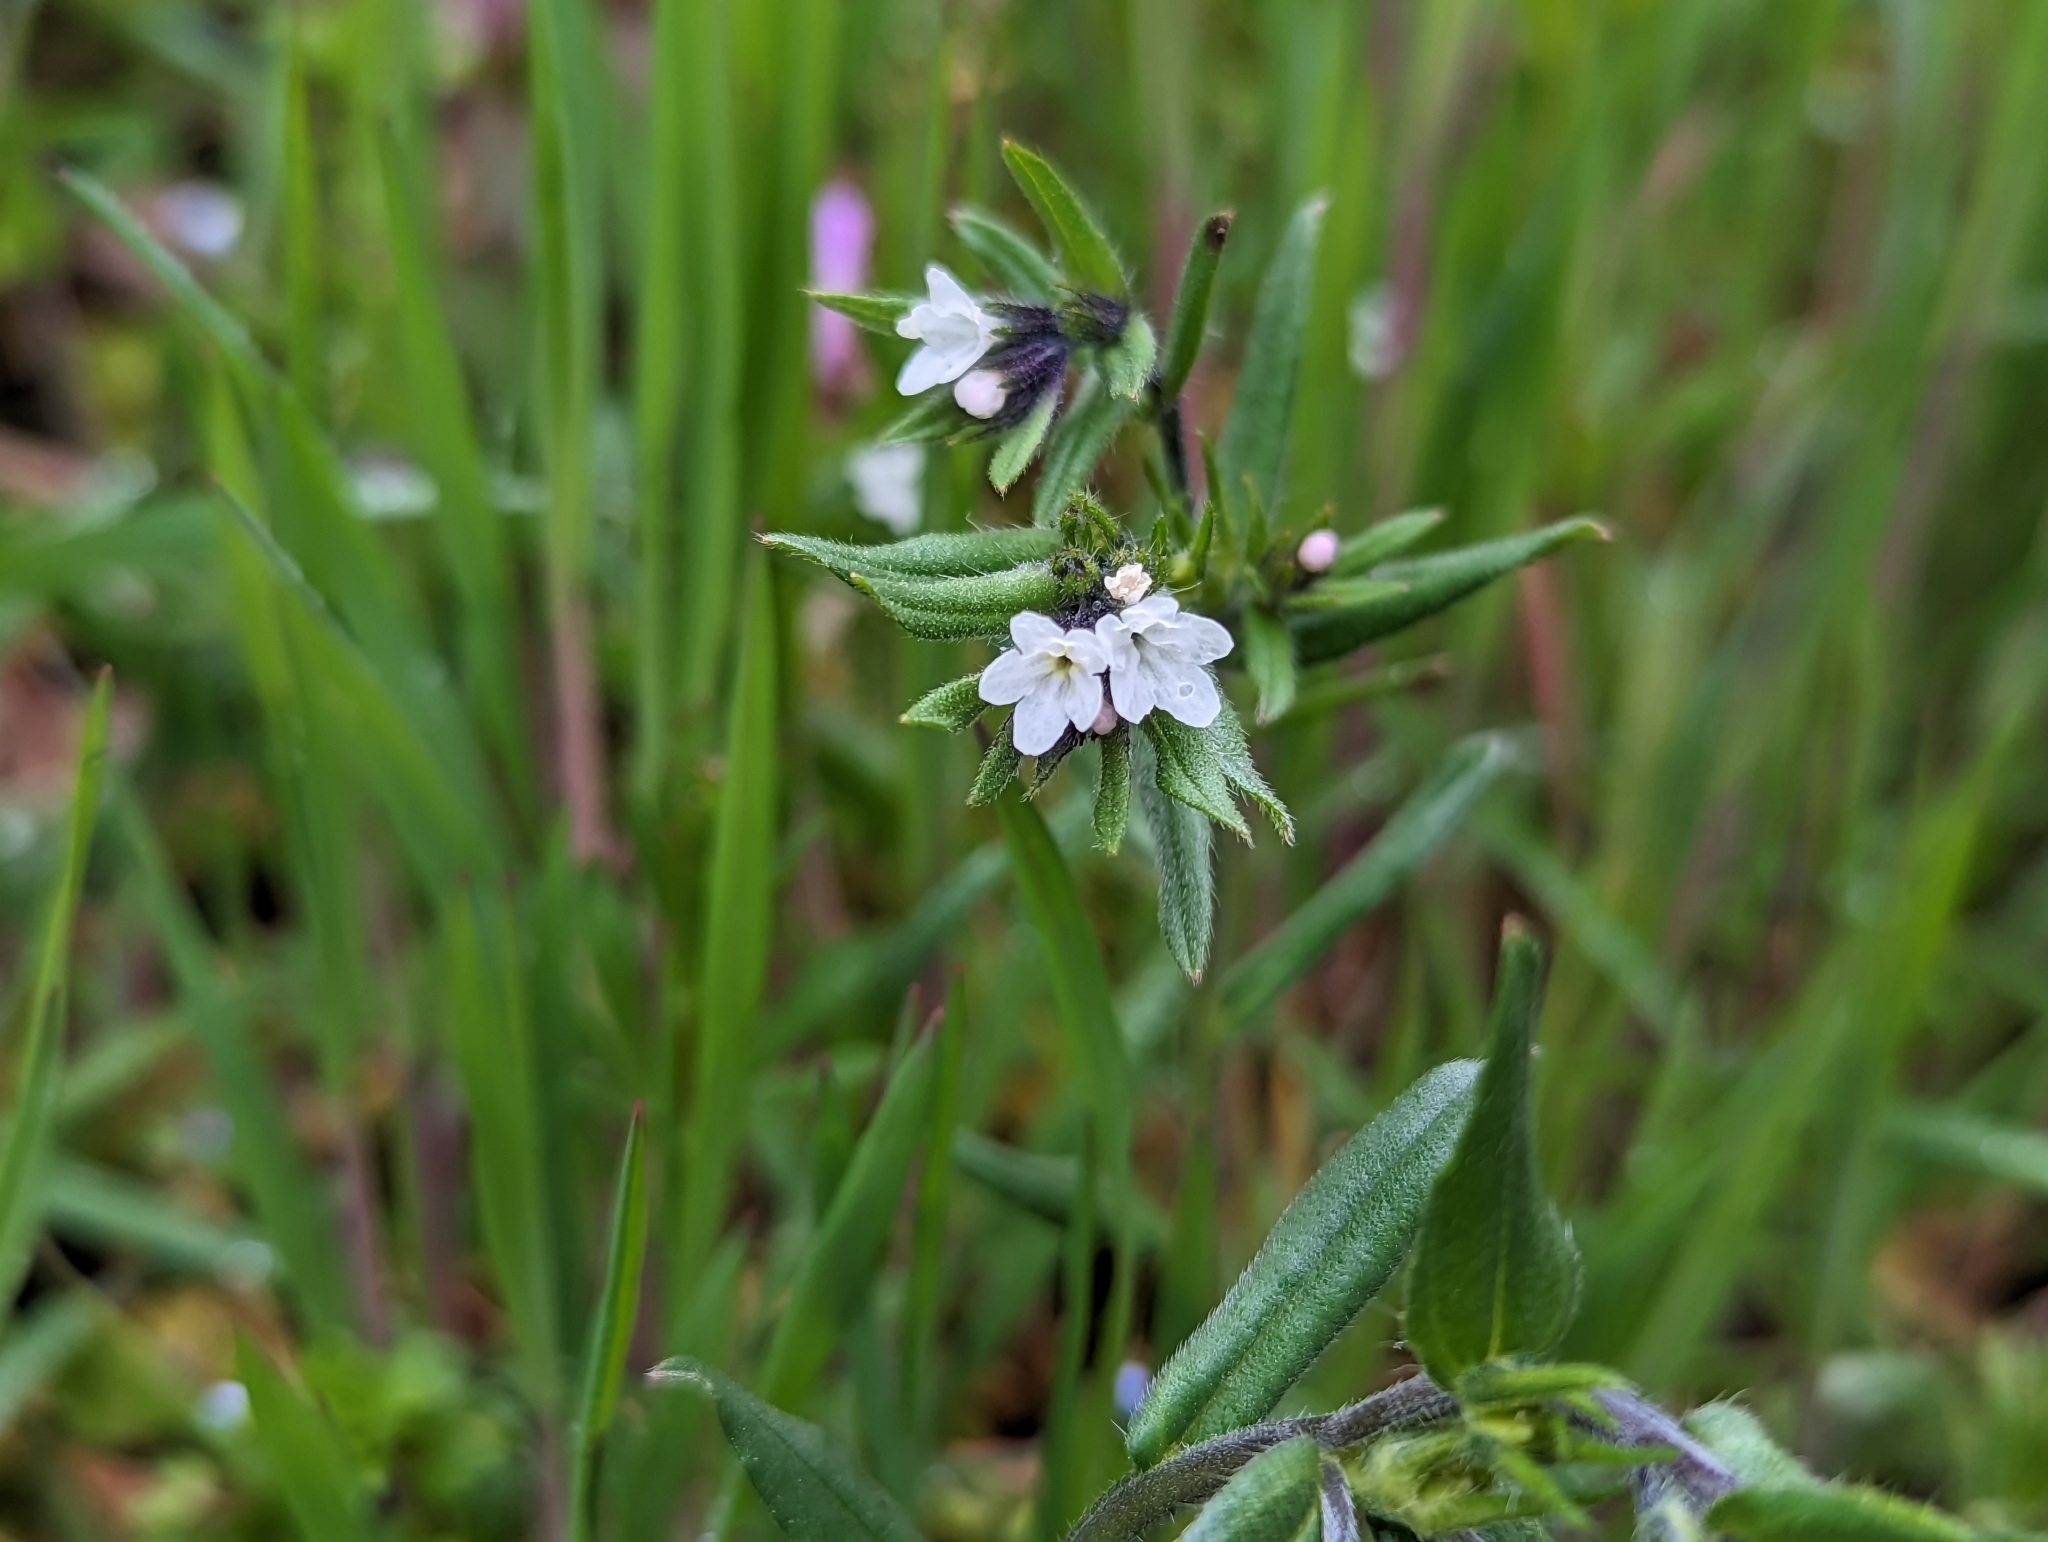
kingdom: Plantae
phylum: Tracheophyta
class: Magnoliopsida
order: Boraginales
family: Boraginaceae
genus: Buglossoides
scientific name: Buglossoides arvensis
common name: Corn gromwell
